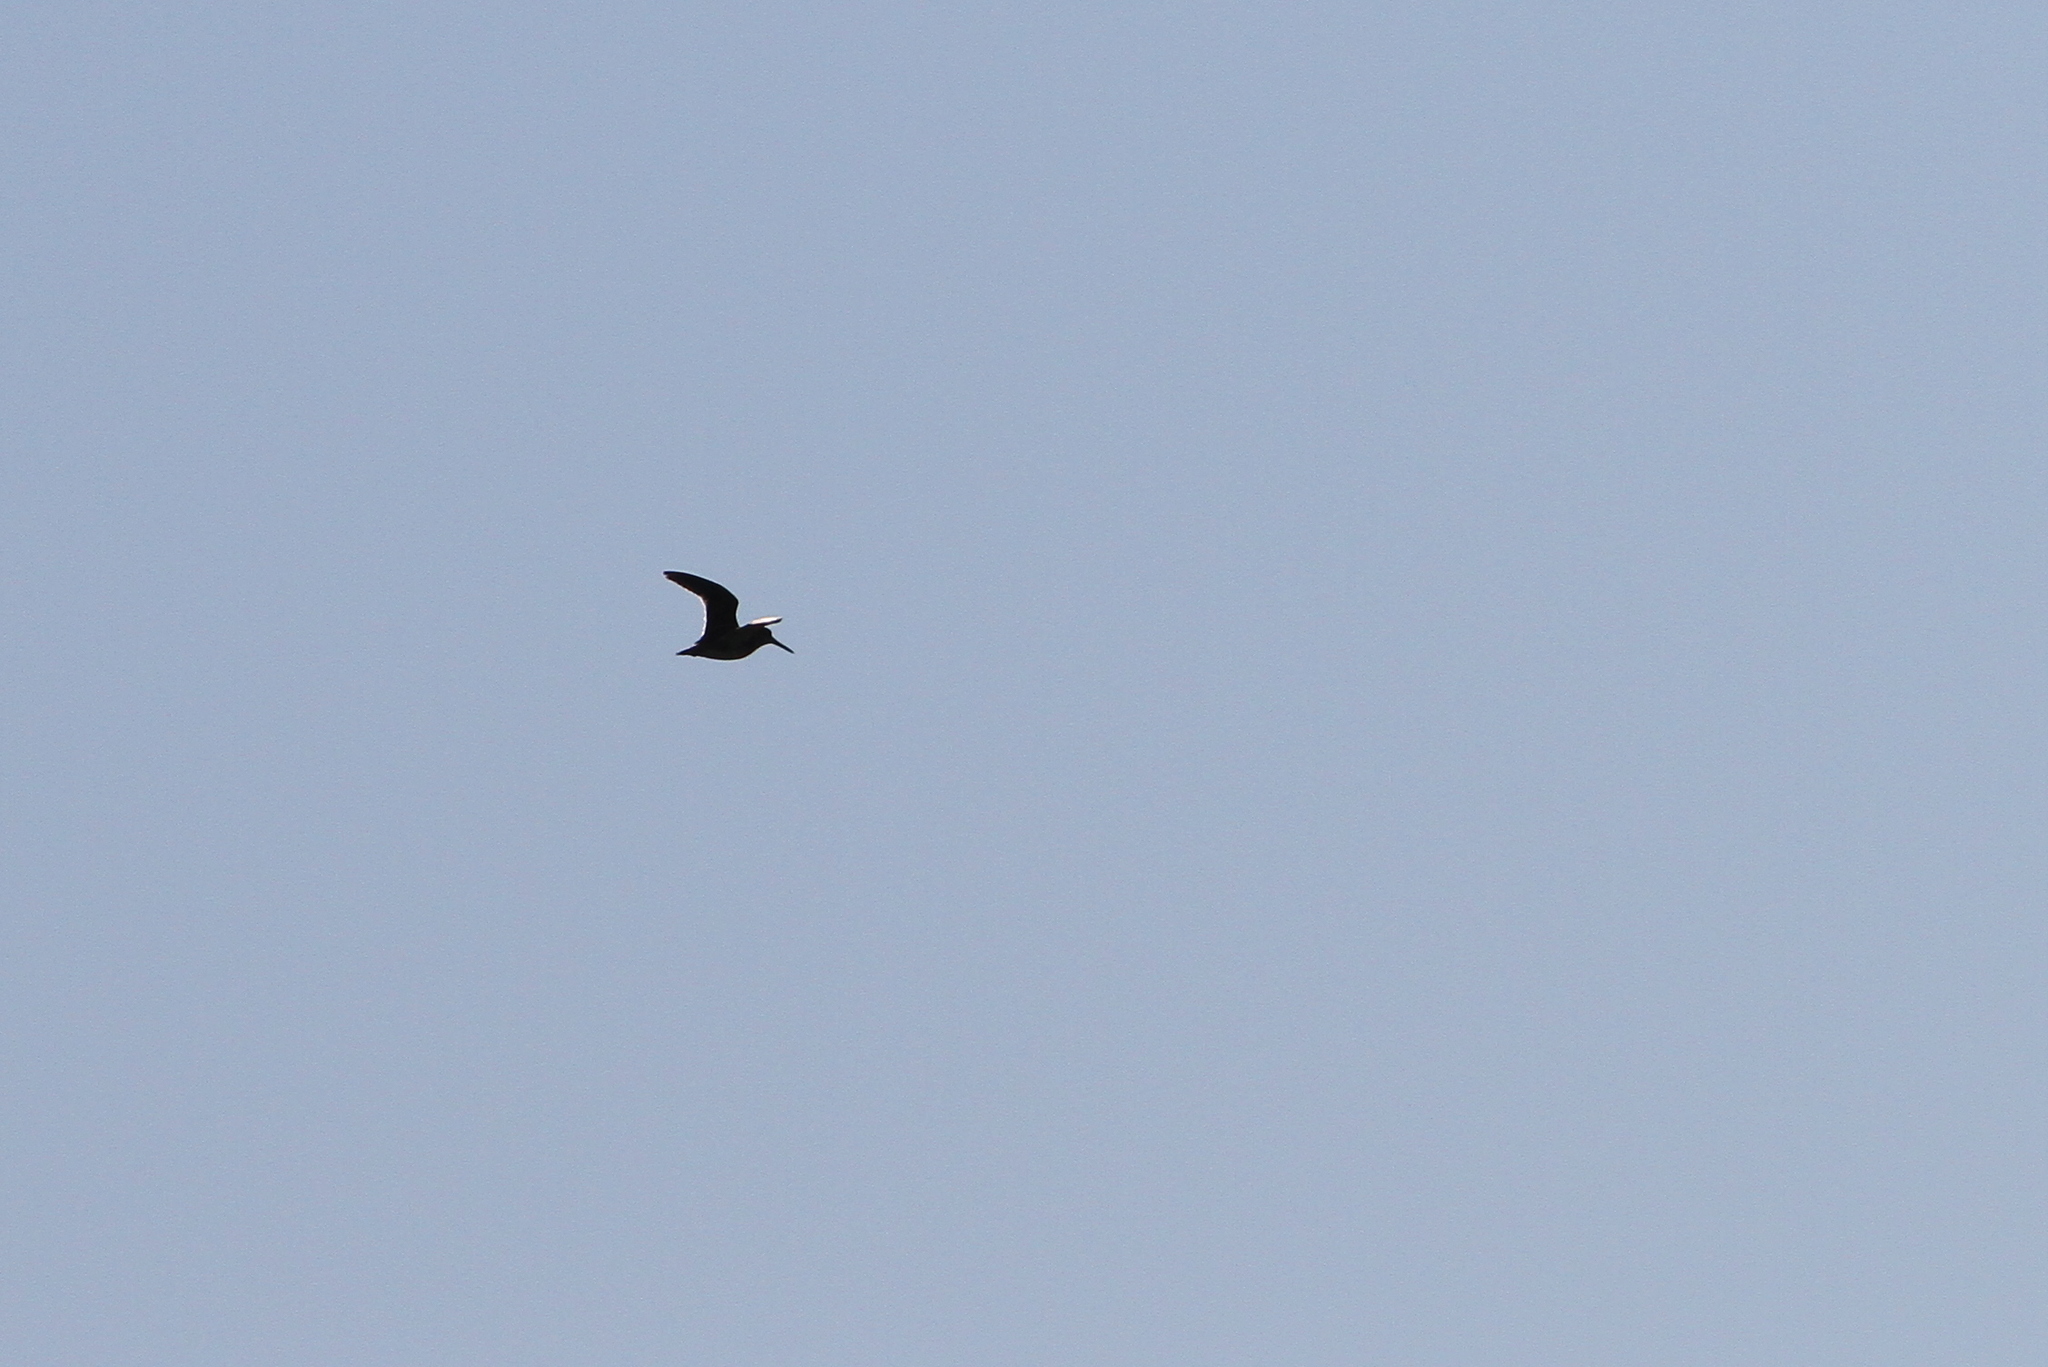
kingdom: Animalia
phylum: Chordata
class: Aves
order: Charadriiformes
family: Scolopacidae
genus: Lymnocryptes
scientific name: Lymnocryptes minimus
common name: Jack snipe
